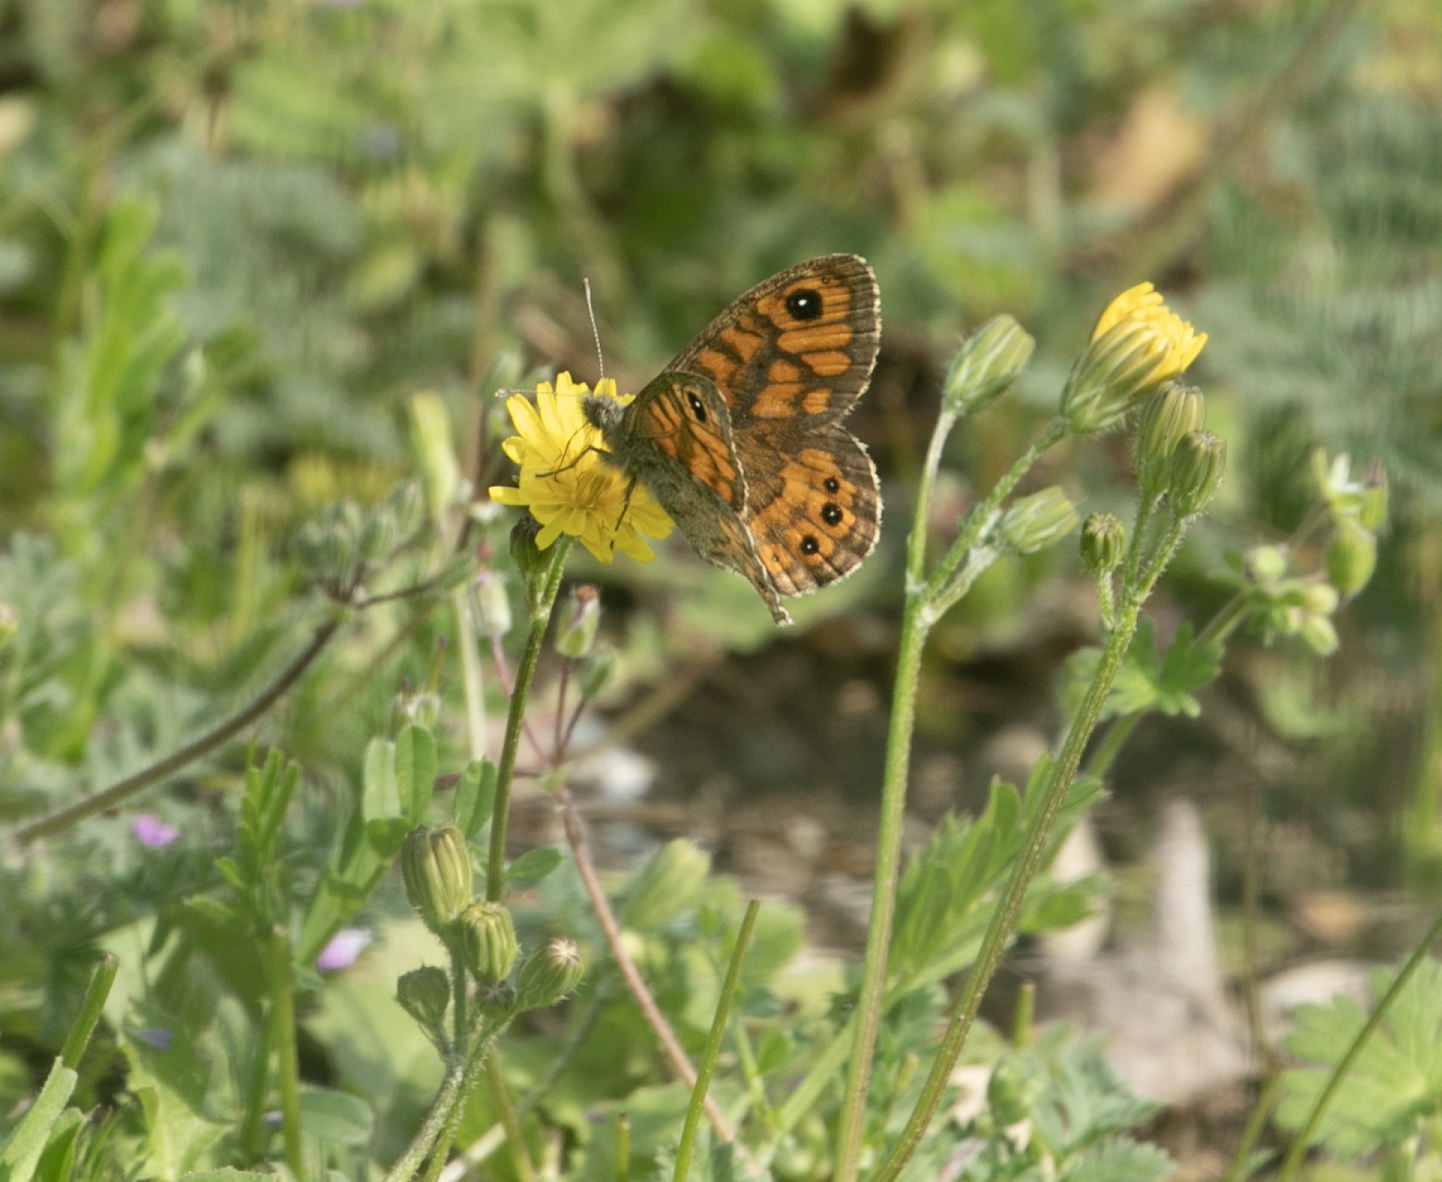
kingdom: Animalia
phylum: Arthropoda
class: Insecta
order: Lepidoptera
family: Nymphalidae
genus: Pararge
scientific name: Pararge Lasiommata megera
